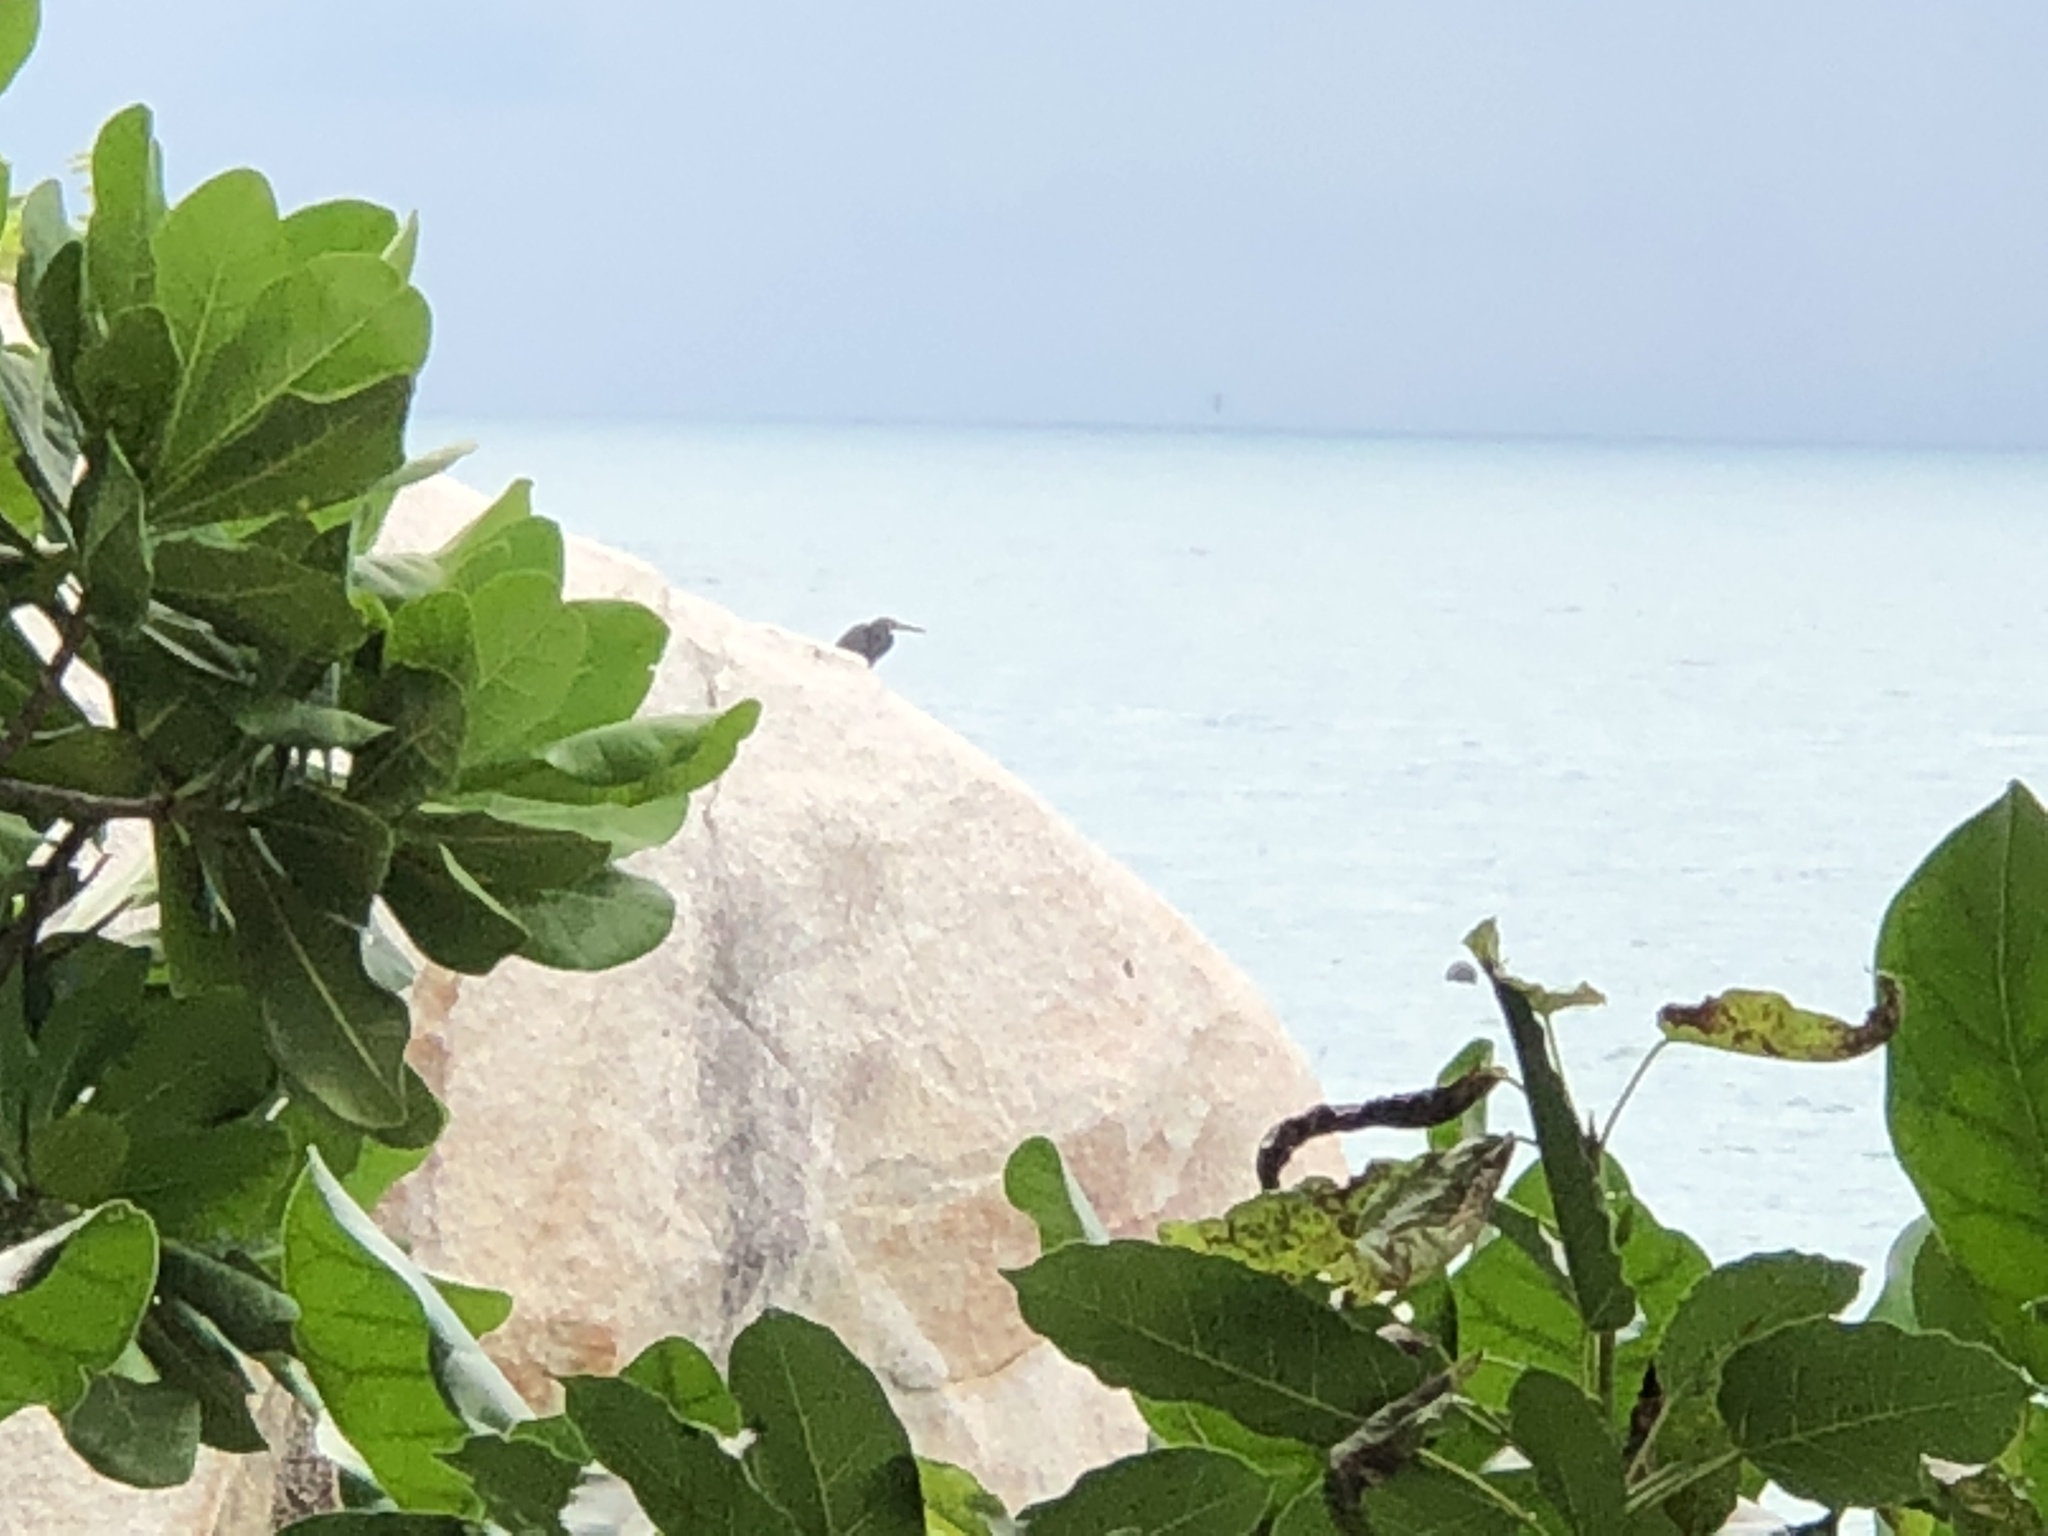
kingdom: Animalia
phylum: Chordata
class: Aves
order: Pelecaniformes
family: Ardeidae
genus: Egretta
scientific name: Egretta sacra
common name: Pacific reef heron
